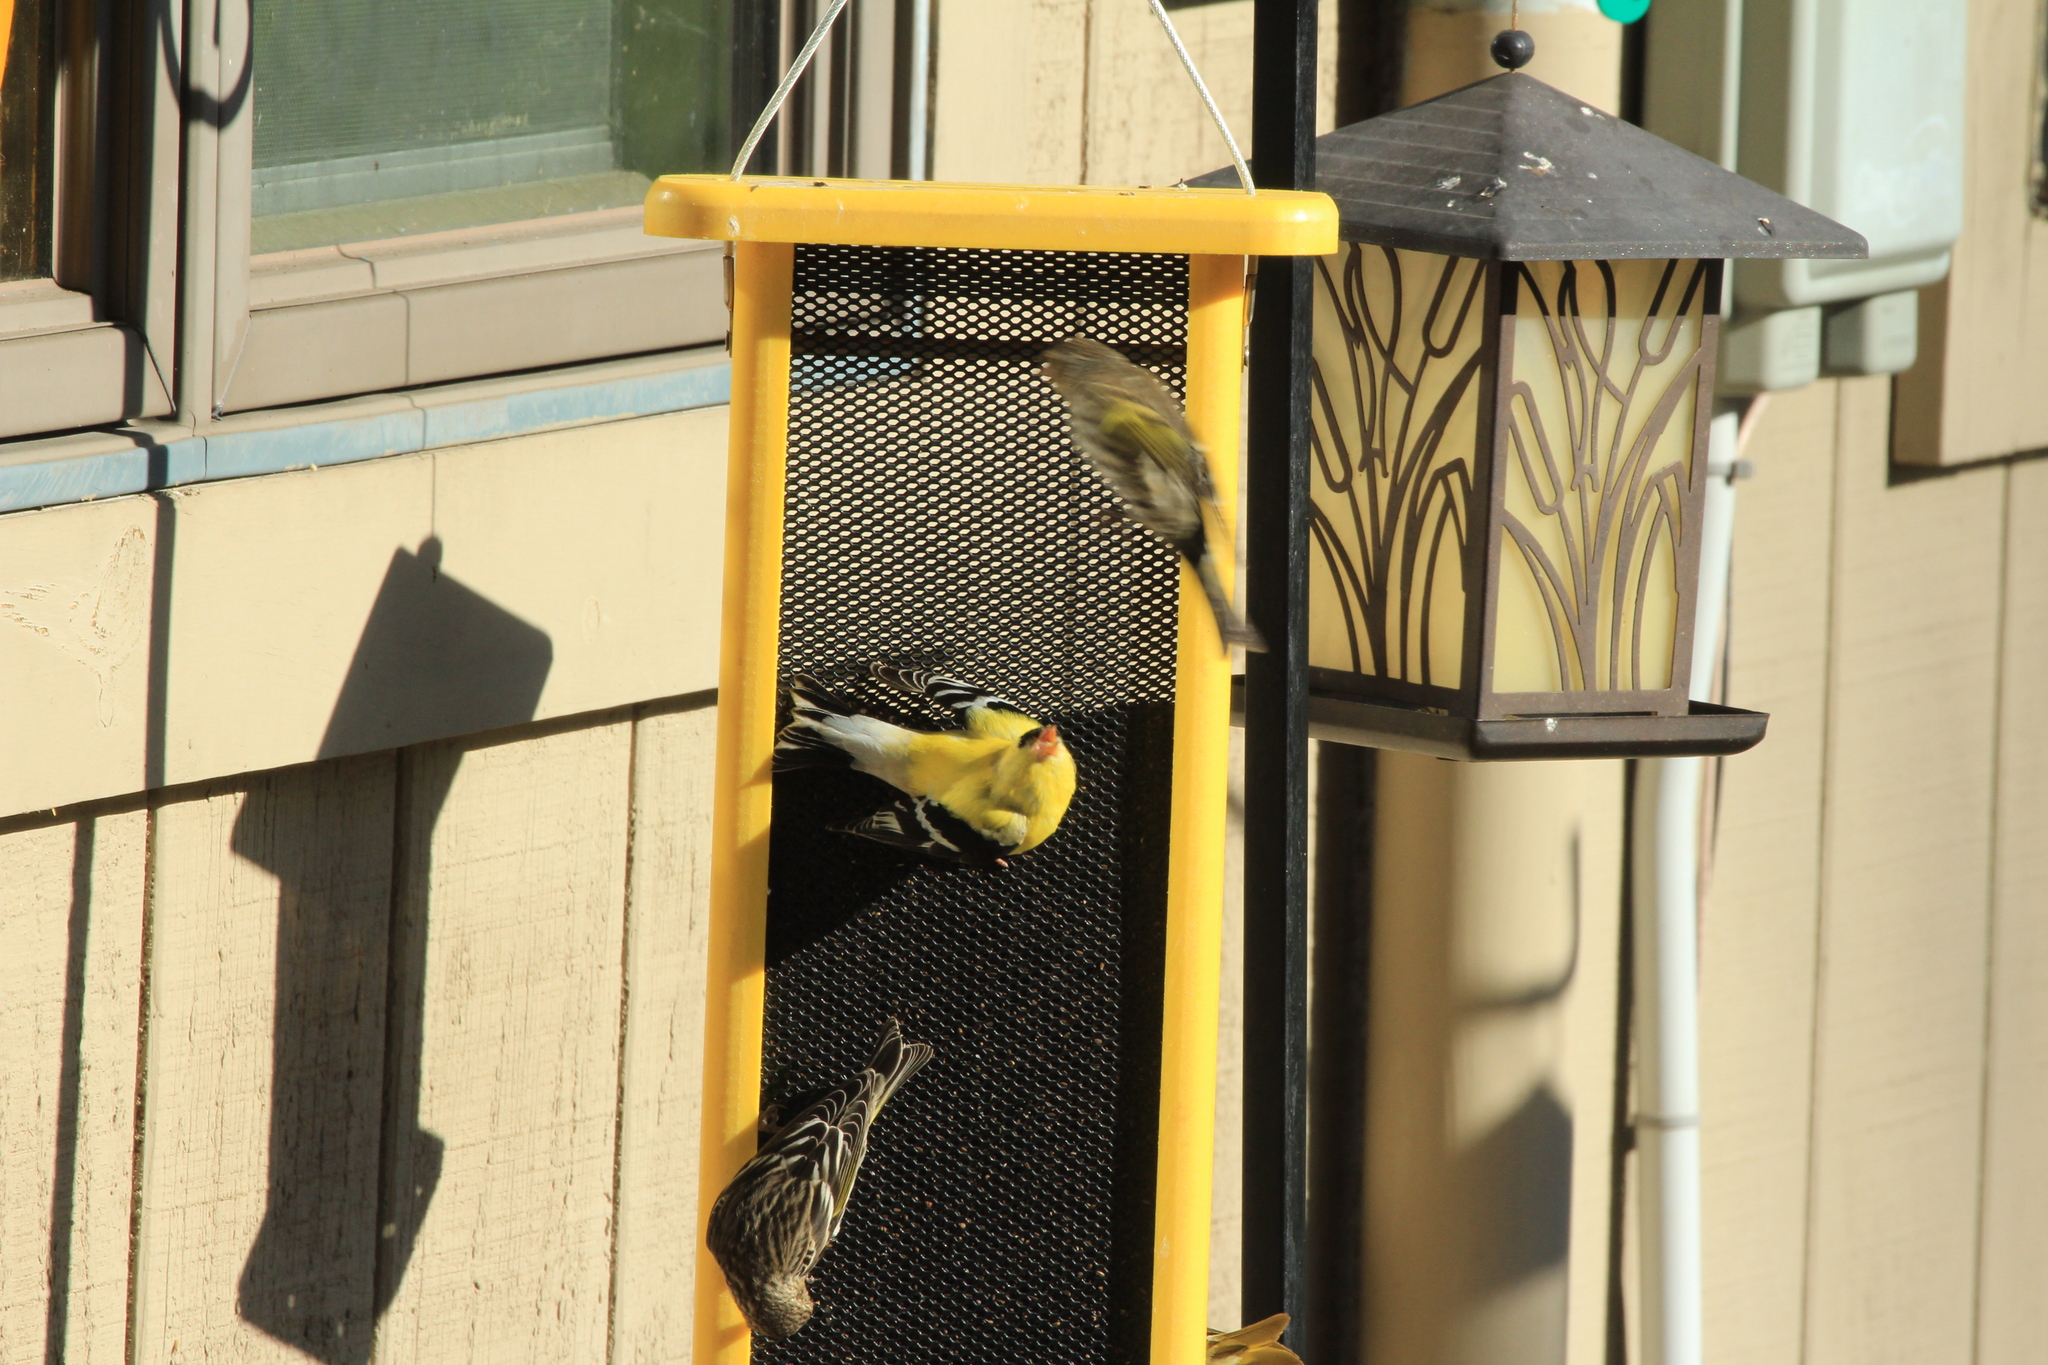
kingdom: Animalia
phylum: Chordata
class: Aves
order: Passeriformes
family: Fringillidae
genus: Spinus
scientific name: Spinus tristis
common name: American goldfinch
